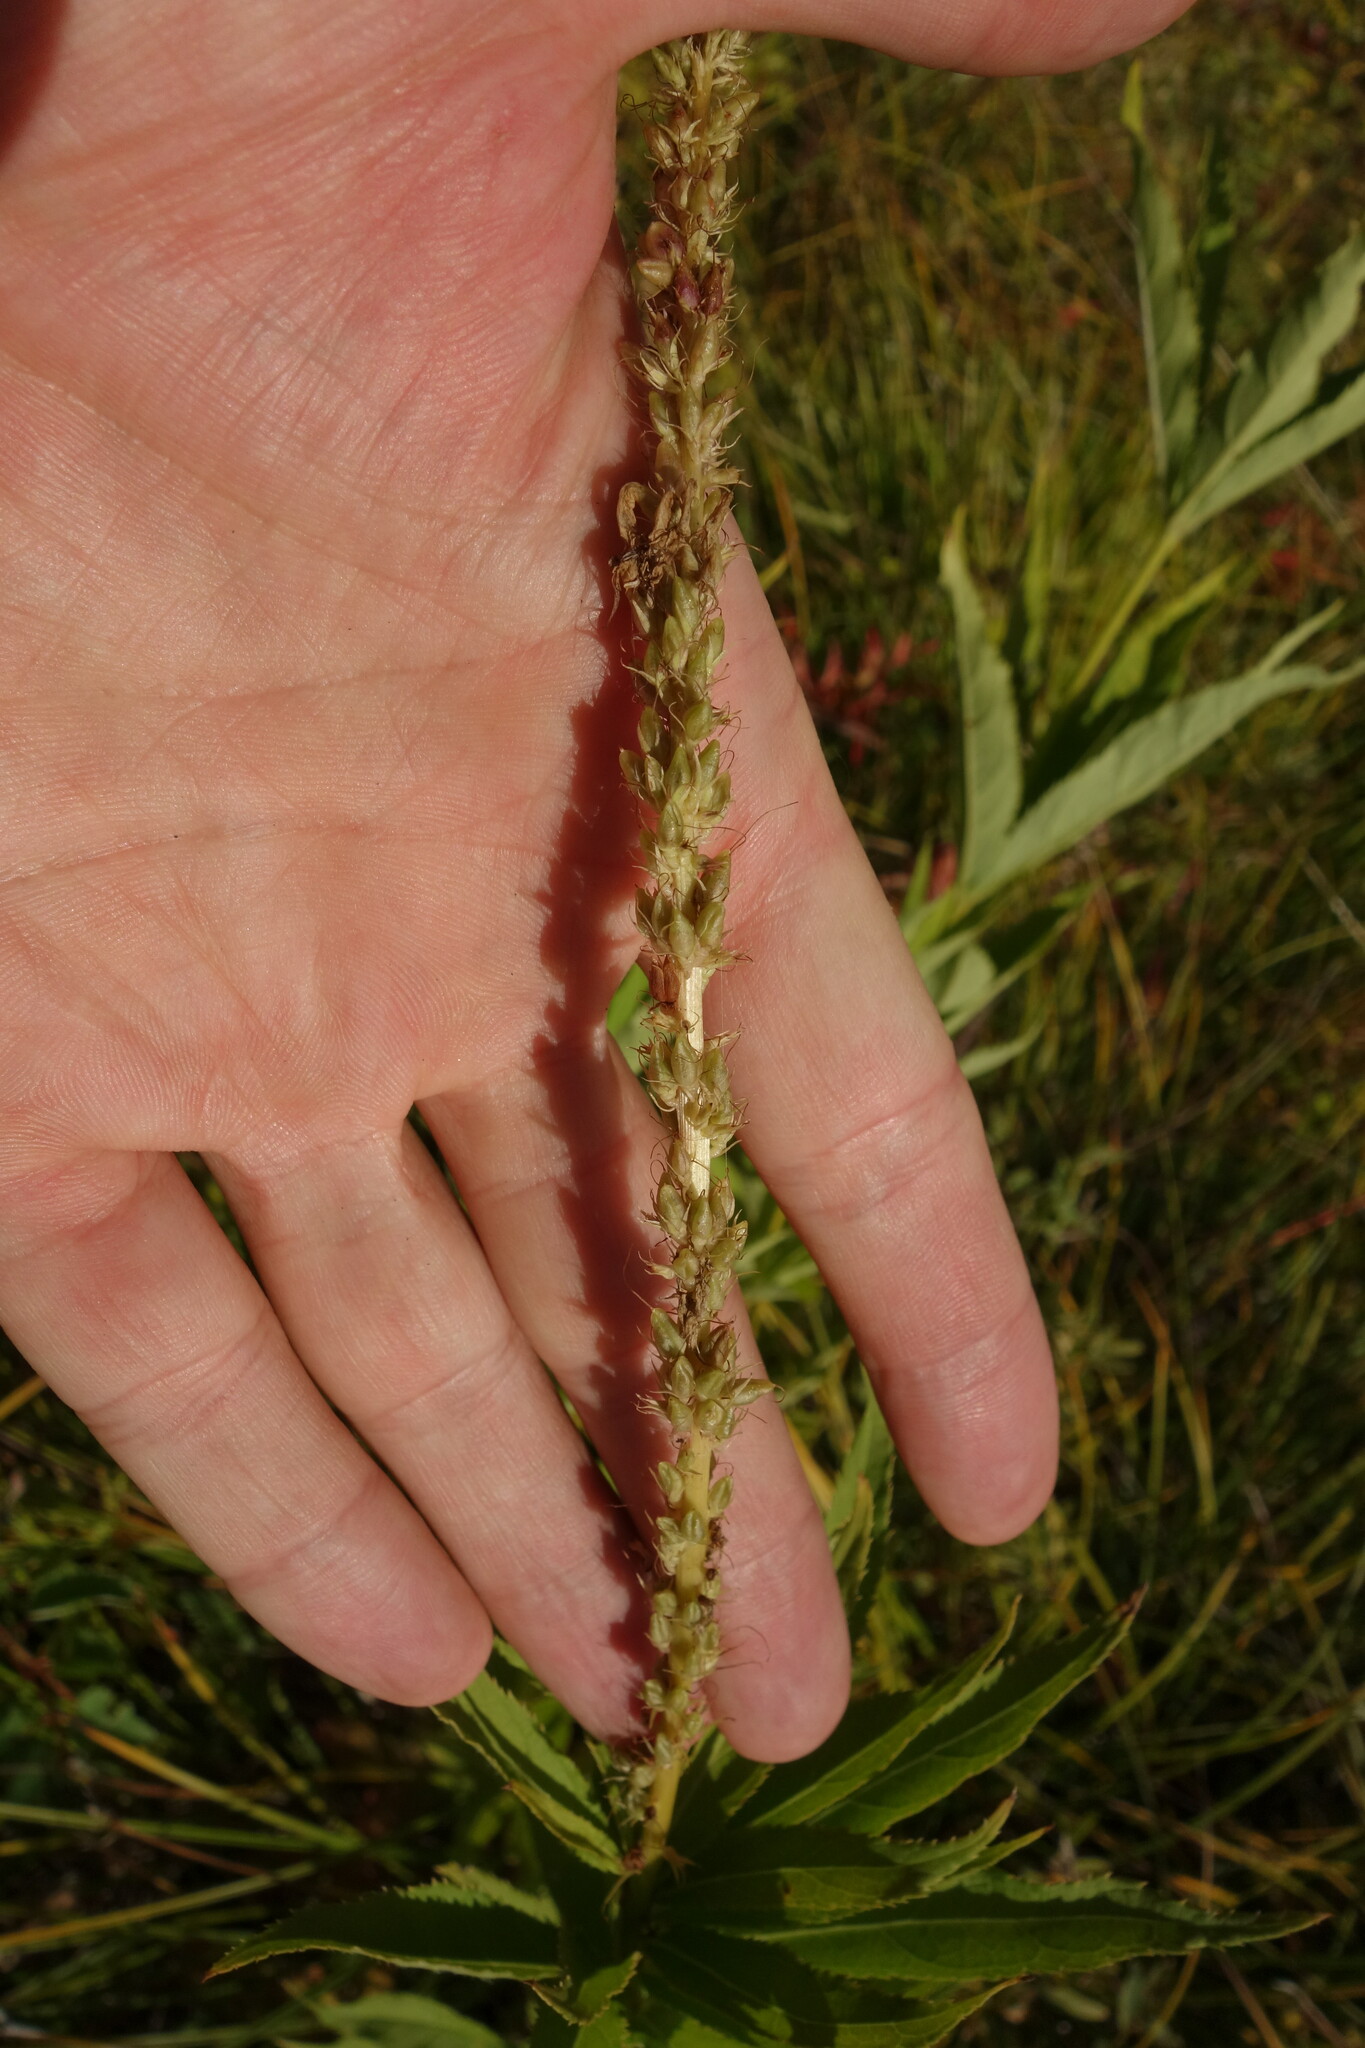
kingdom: Plantae
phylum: Tracheophyta
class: Magnoliopsida
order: Lamiales
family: Plantaginaceae
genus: Veronicastrum
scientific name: Veronicastrum sibiricum
